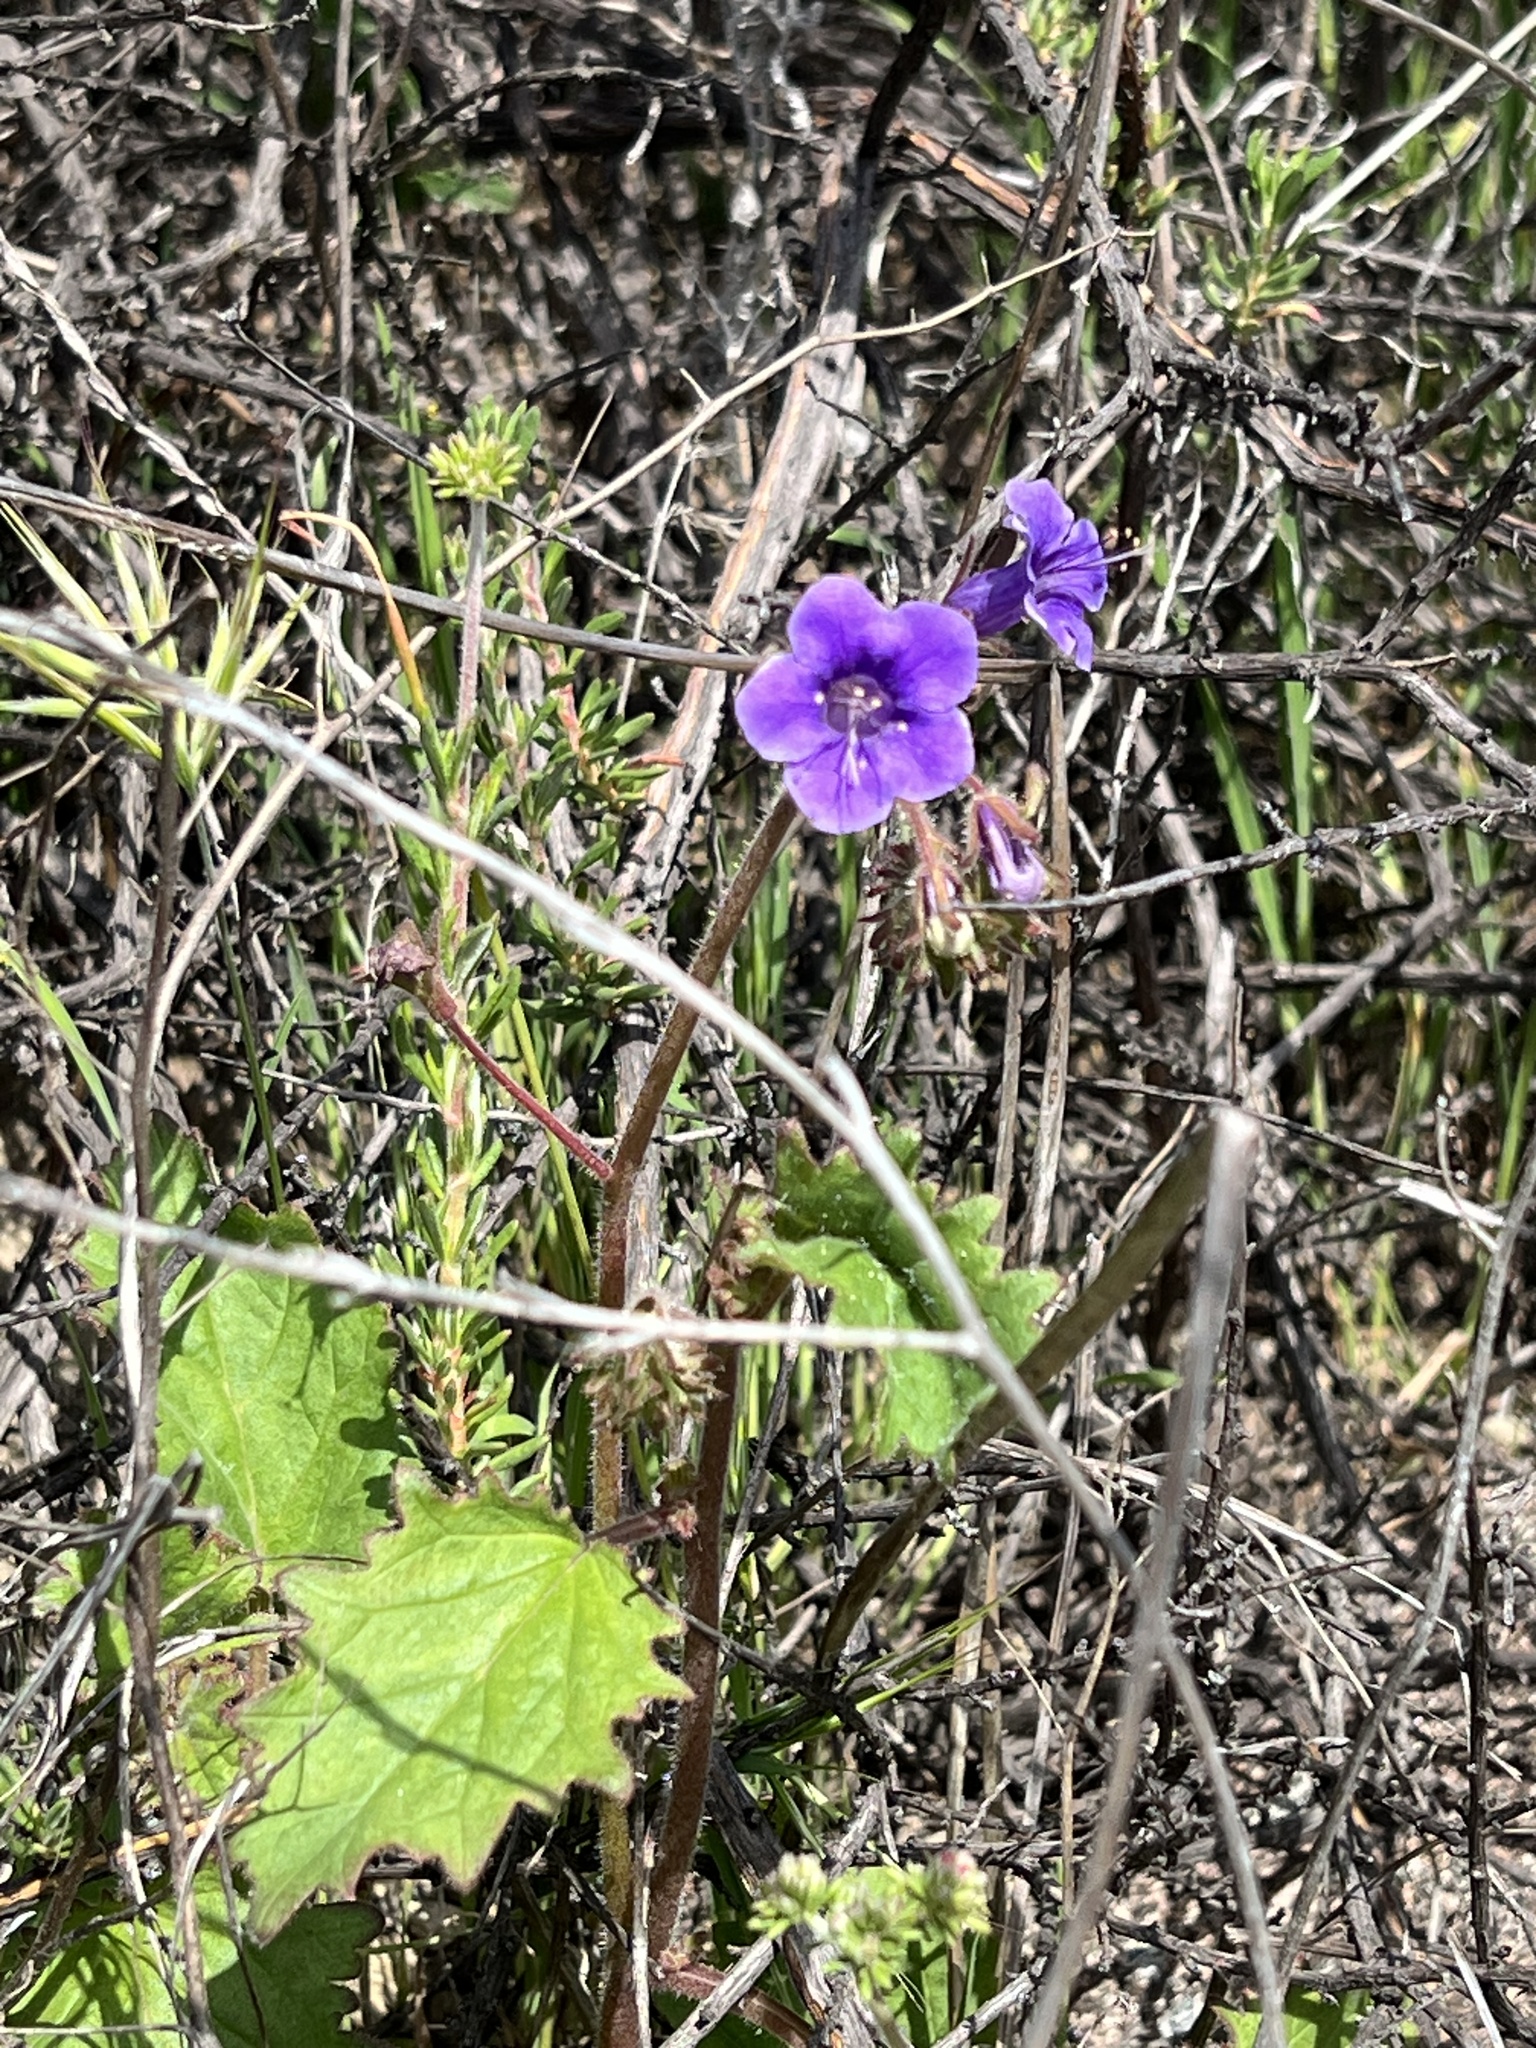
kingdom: Plantae
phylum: Tracheophyta
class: Magnoliopsida
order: Boraginales
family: Hydrophyllaceae
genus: Phacelia
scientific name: Phacelia minor
